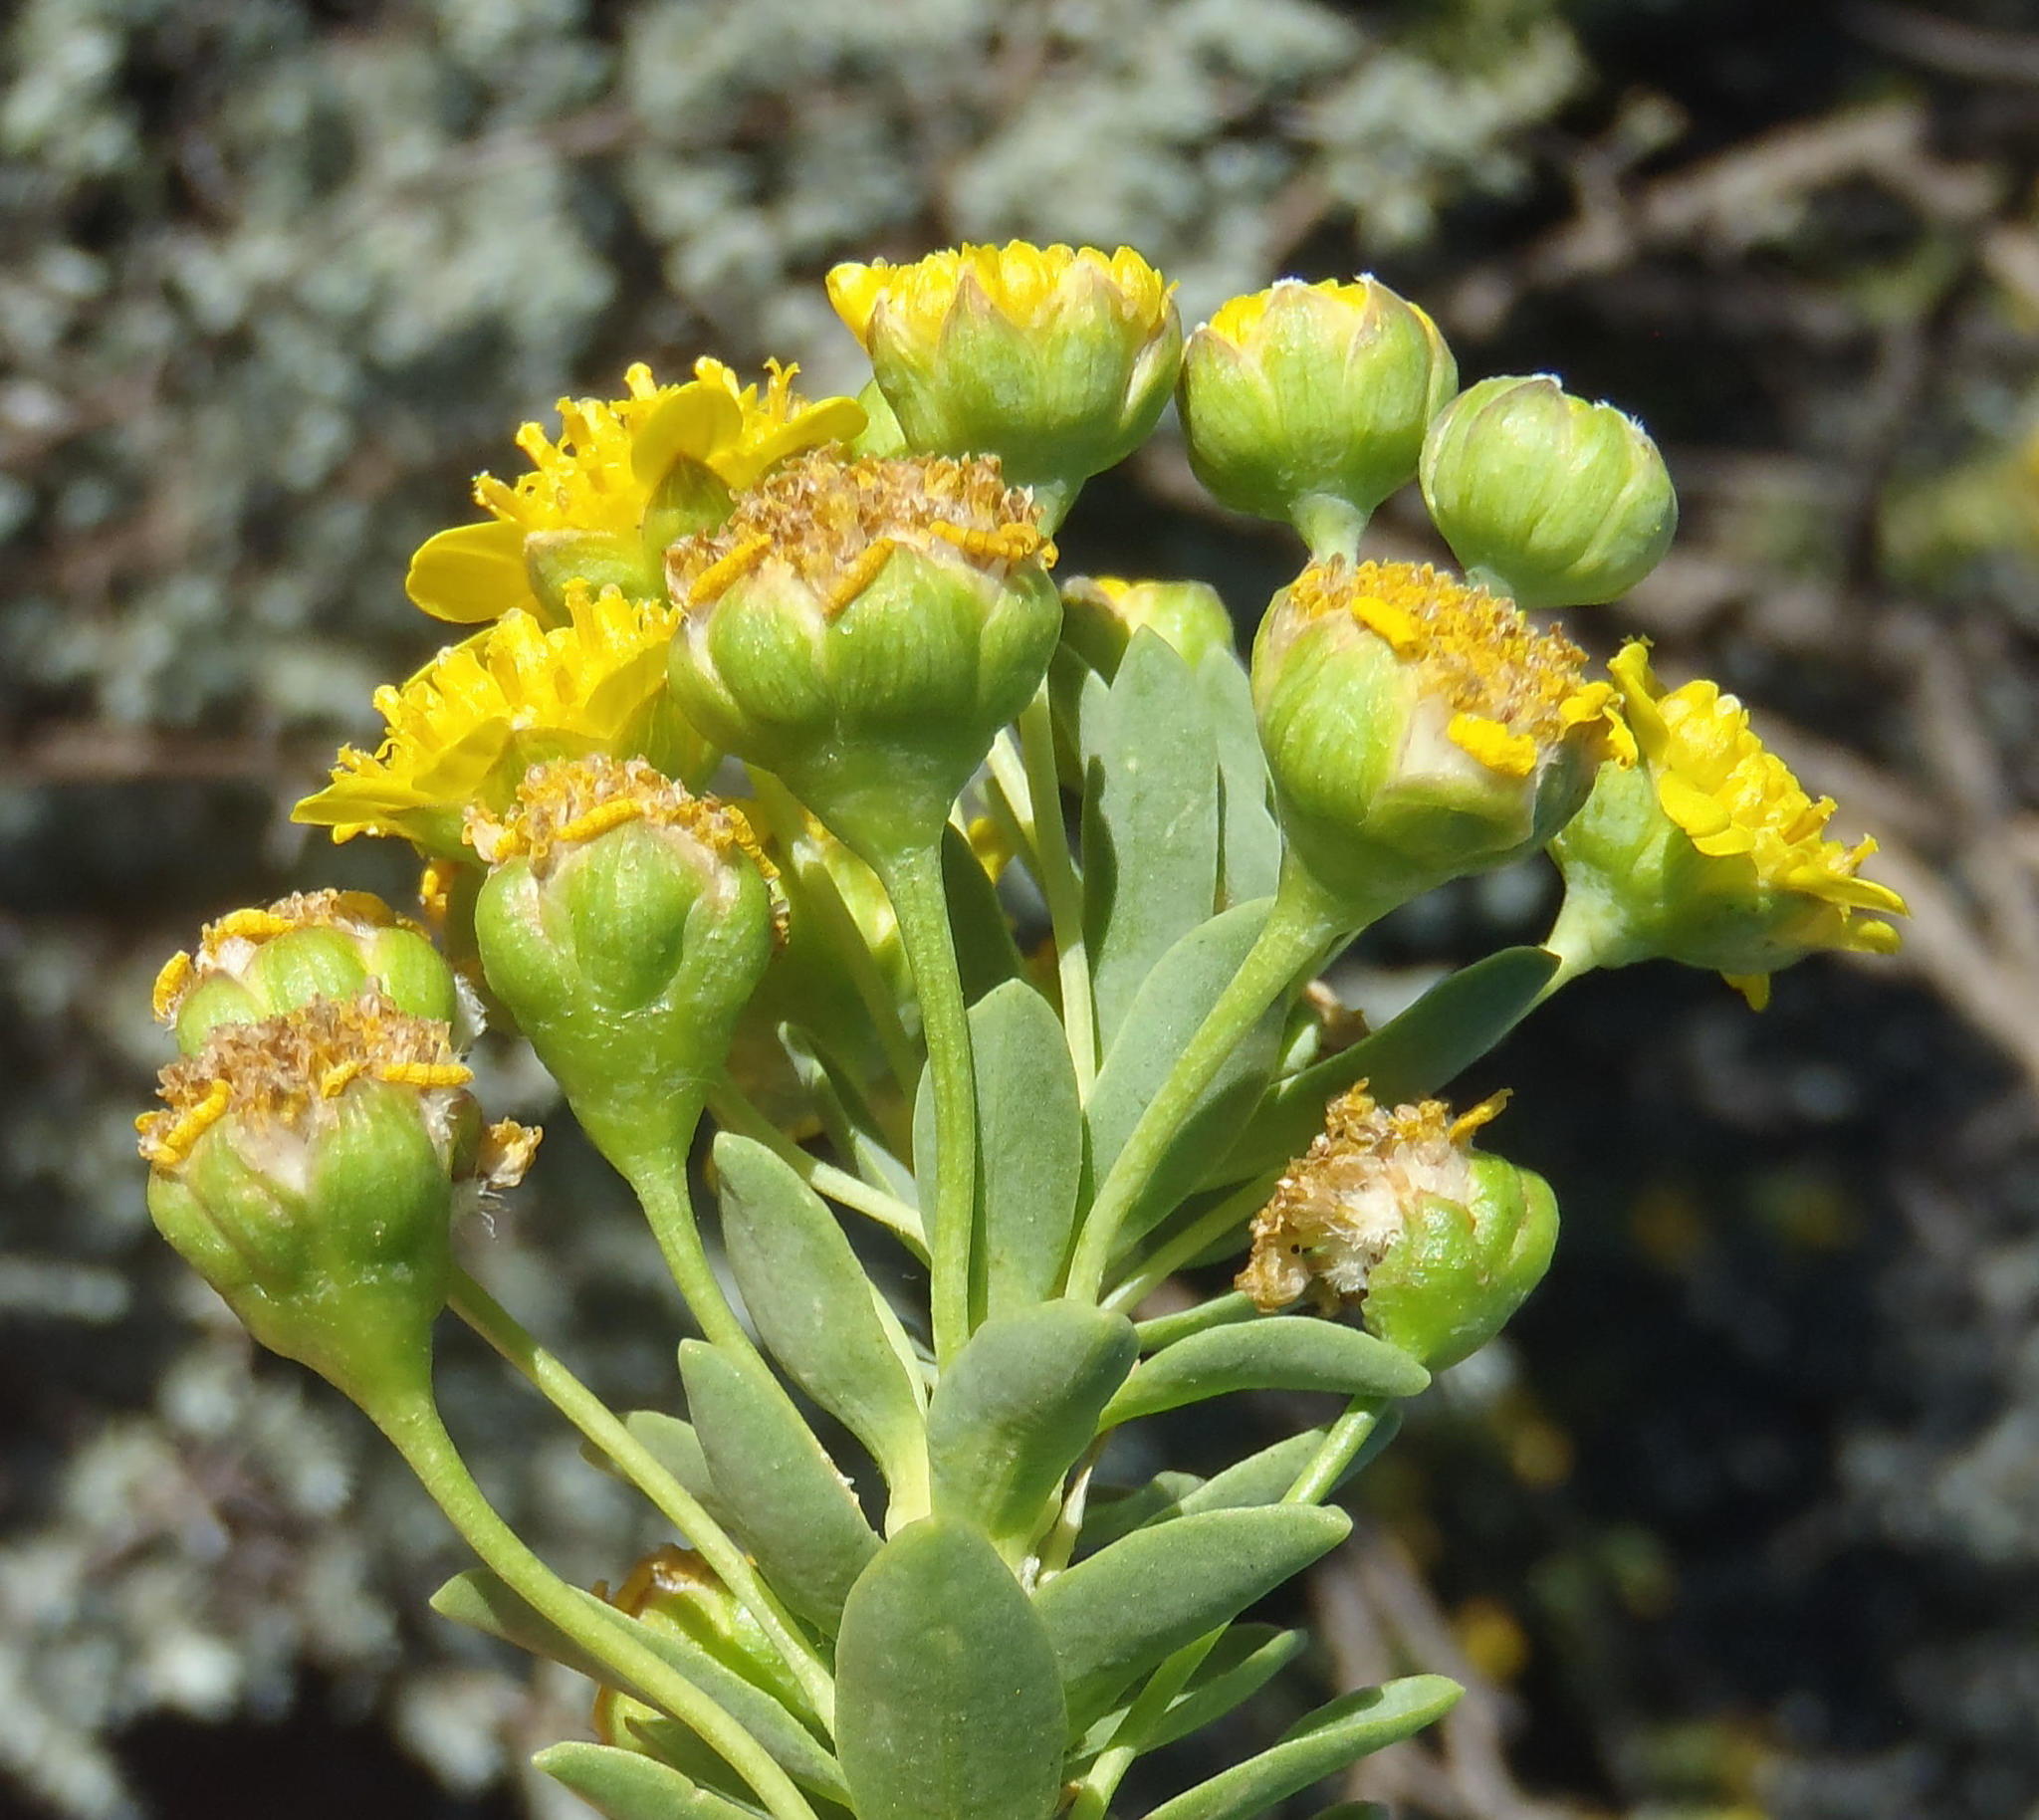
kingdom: Plantae
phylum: Tracheophyta
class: Magnoliopsida
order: Asterales
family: Asteraceae
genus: Euryops
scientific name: Euryops lateriflorus
